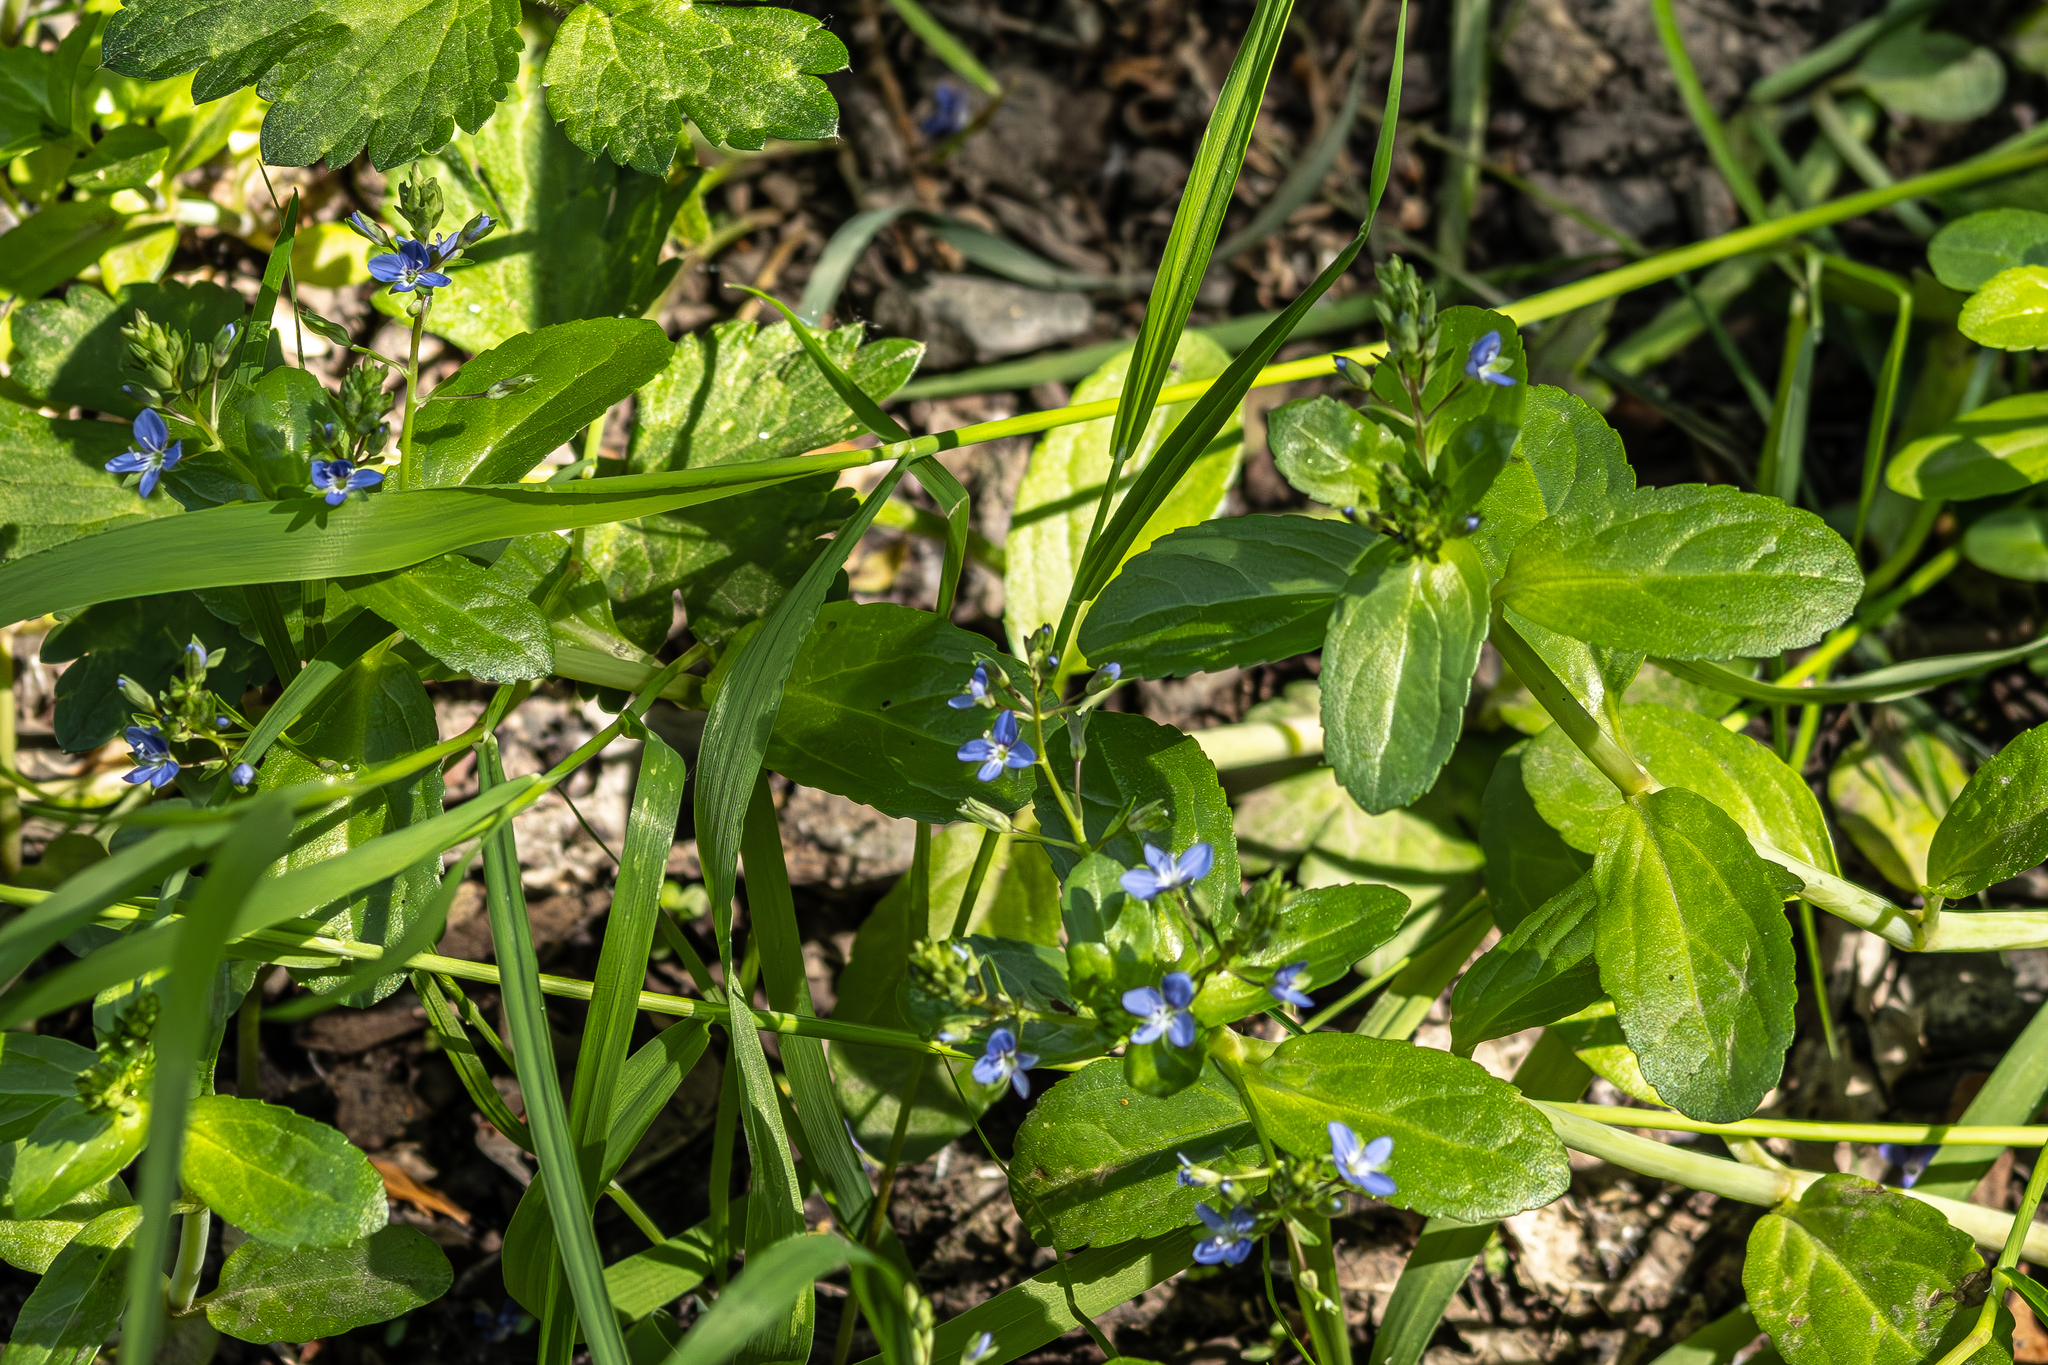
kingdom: Plantae
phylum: Tracheophyta
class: Magnoliopsida
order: Lamiales
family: Plantaginaceae
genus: Veronica
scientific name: Veronica beccabunga
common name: Brooklime
